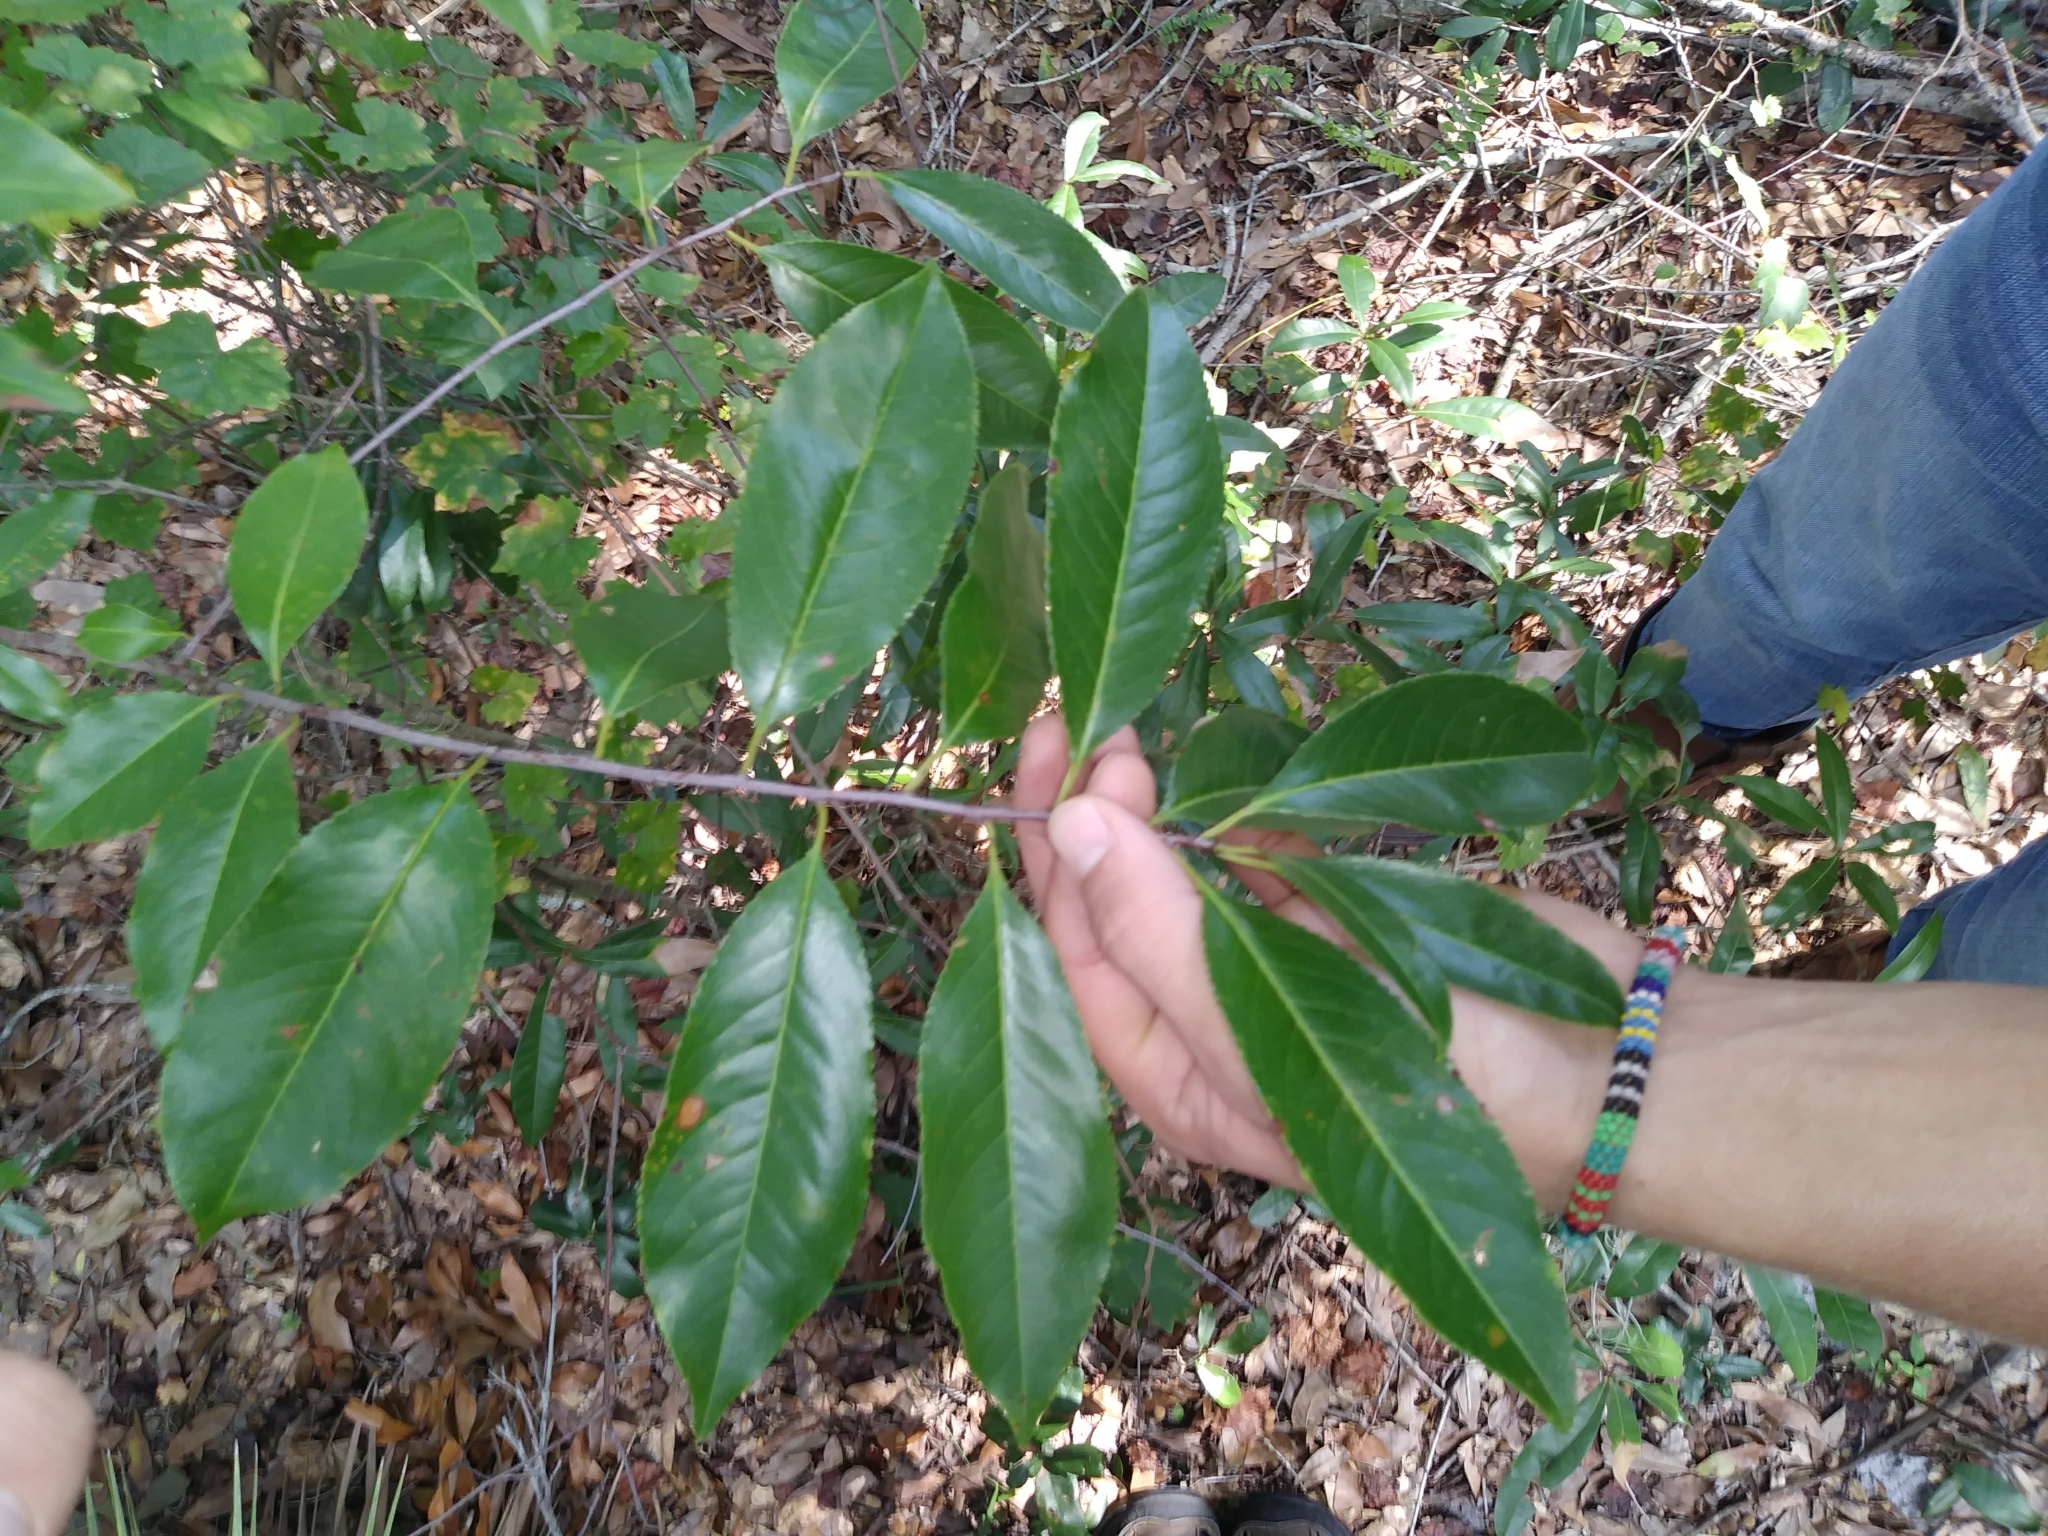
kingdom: Plantae
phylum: Tracheophyta
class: Magnoliopsida
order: Rosales
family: Rosaceae
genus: Prunus
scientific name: Prunus serotina
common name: Black cherry
